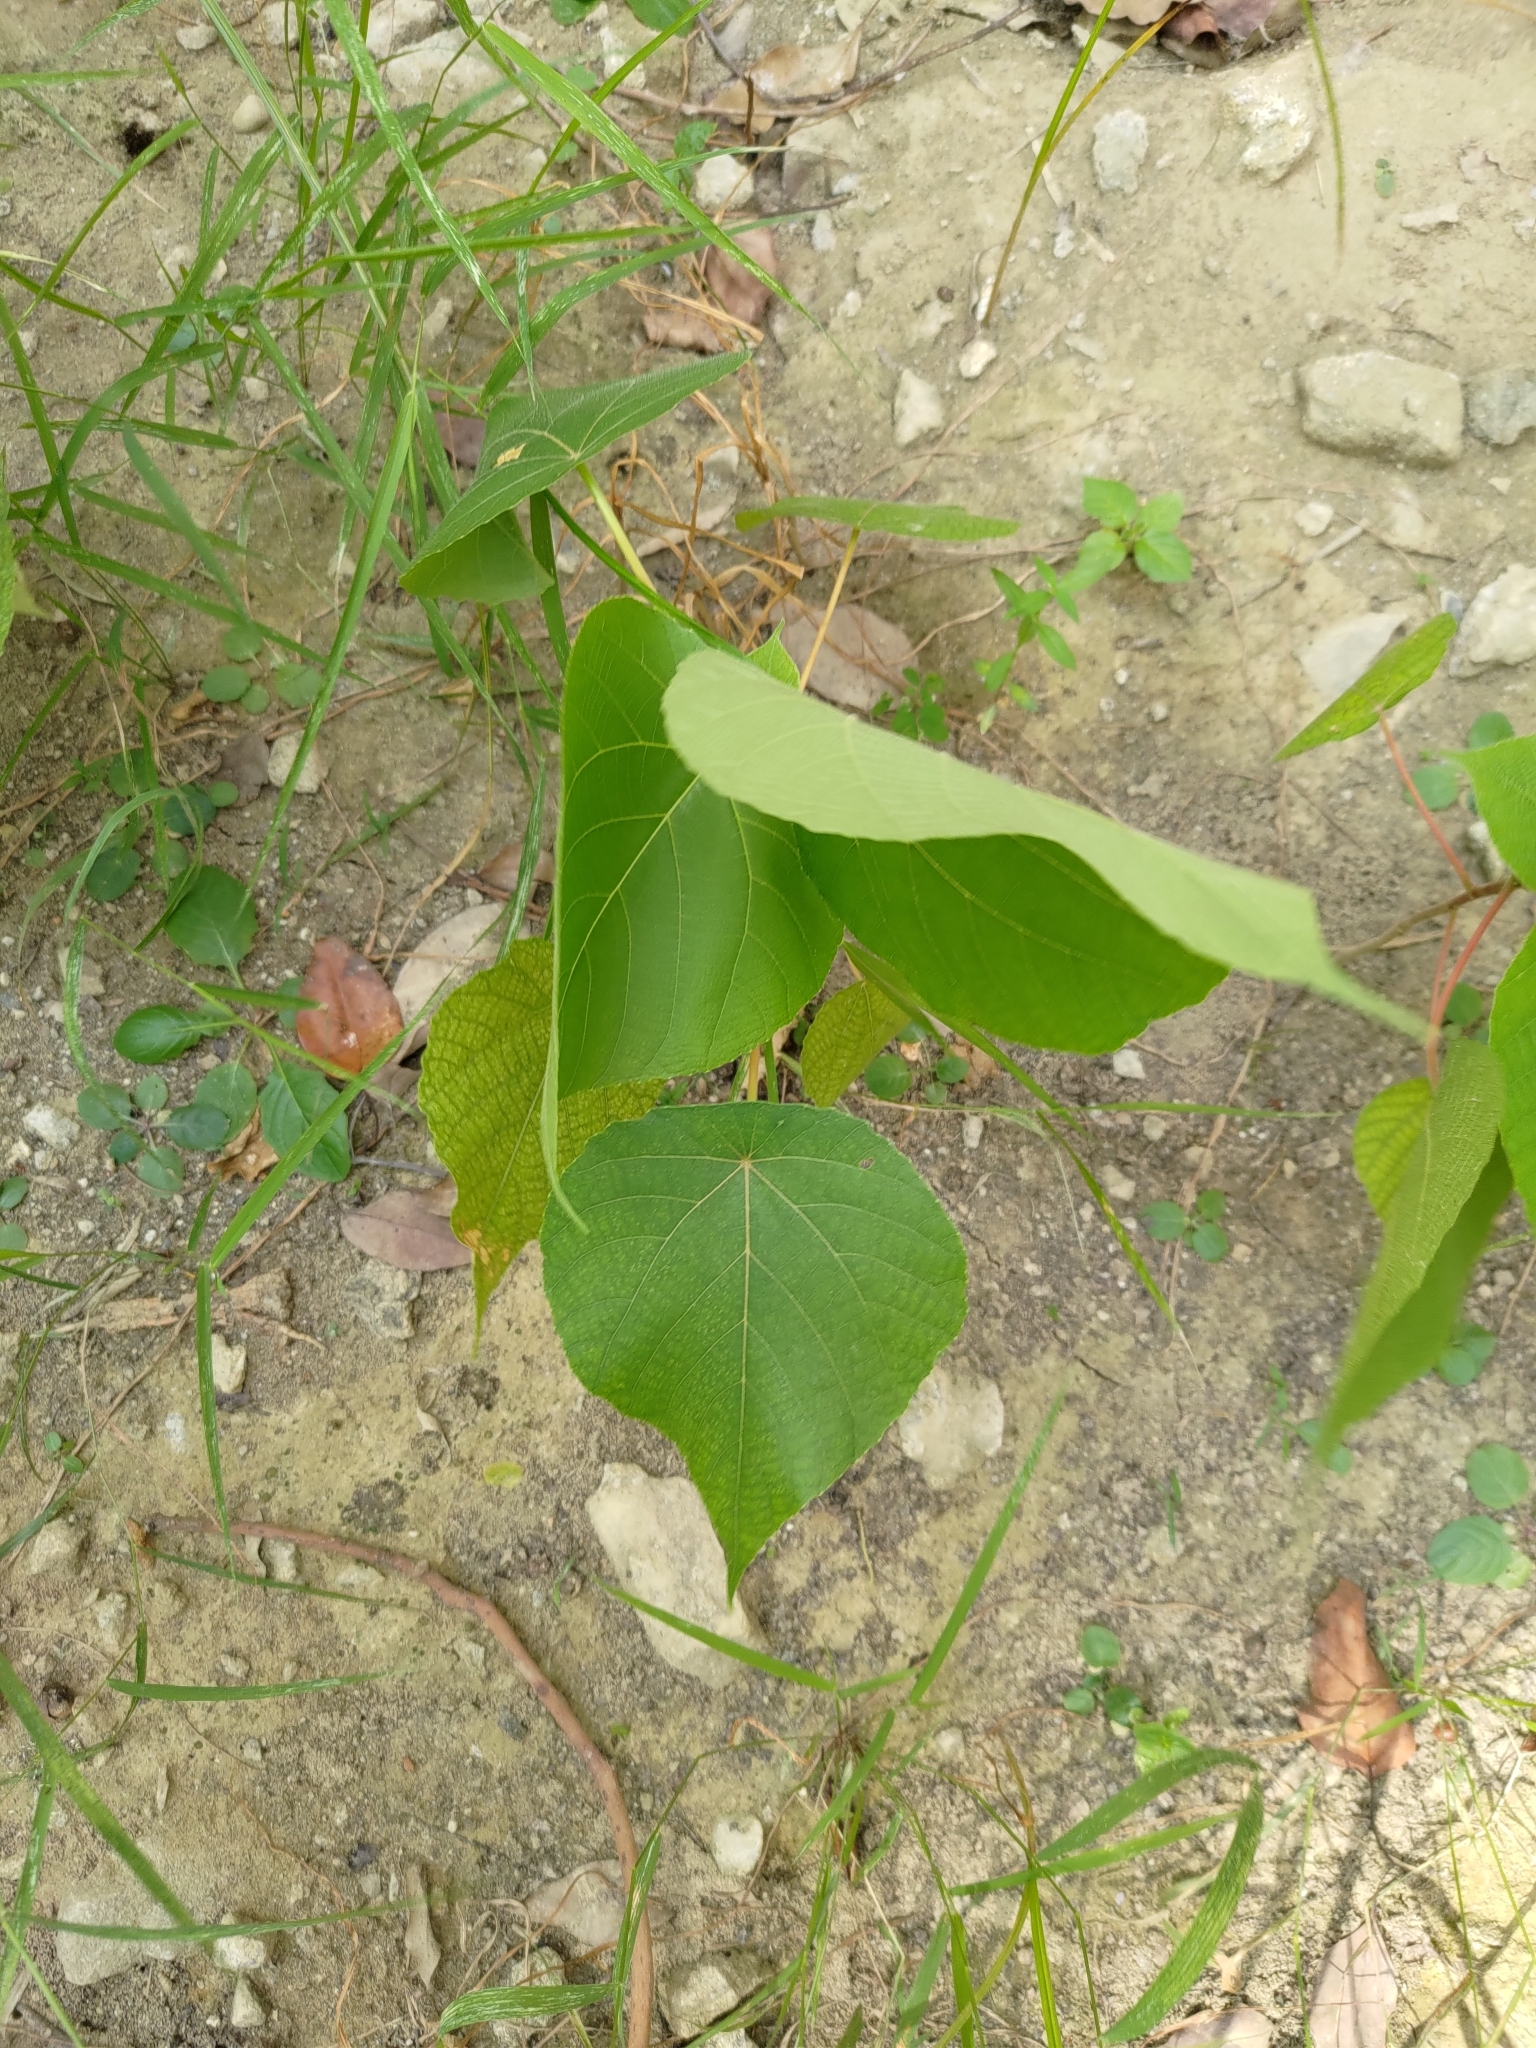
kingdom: Plantae
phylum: Tracheophyta
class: Magnoliopsida
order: Malpighiales
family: Euphorbiaceae
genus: Macaranga
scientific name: Macaranga tanarius
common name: Parasol leaf tree
